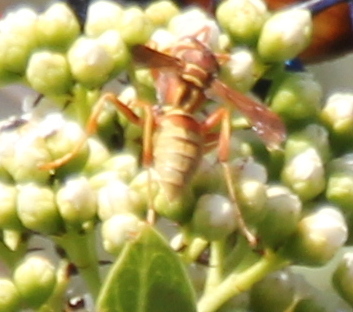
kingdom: Animalia
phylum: Arthropoda
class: Insecta
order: Hymenoptera
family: Eumenidae
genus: Polistes
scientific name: Polistes dorsalis
